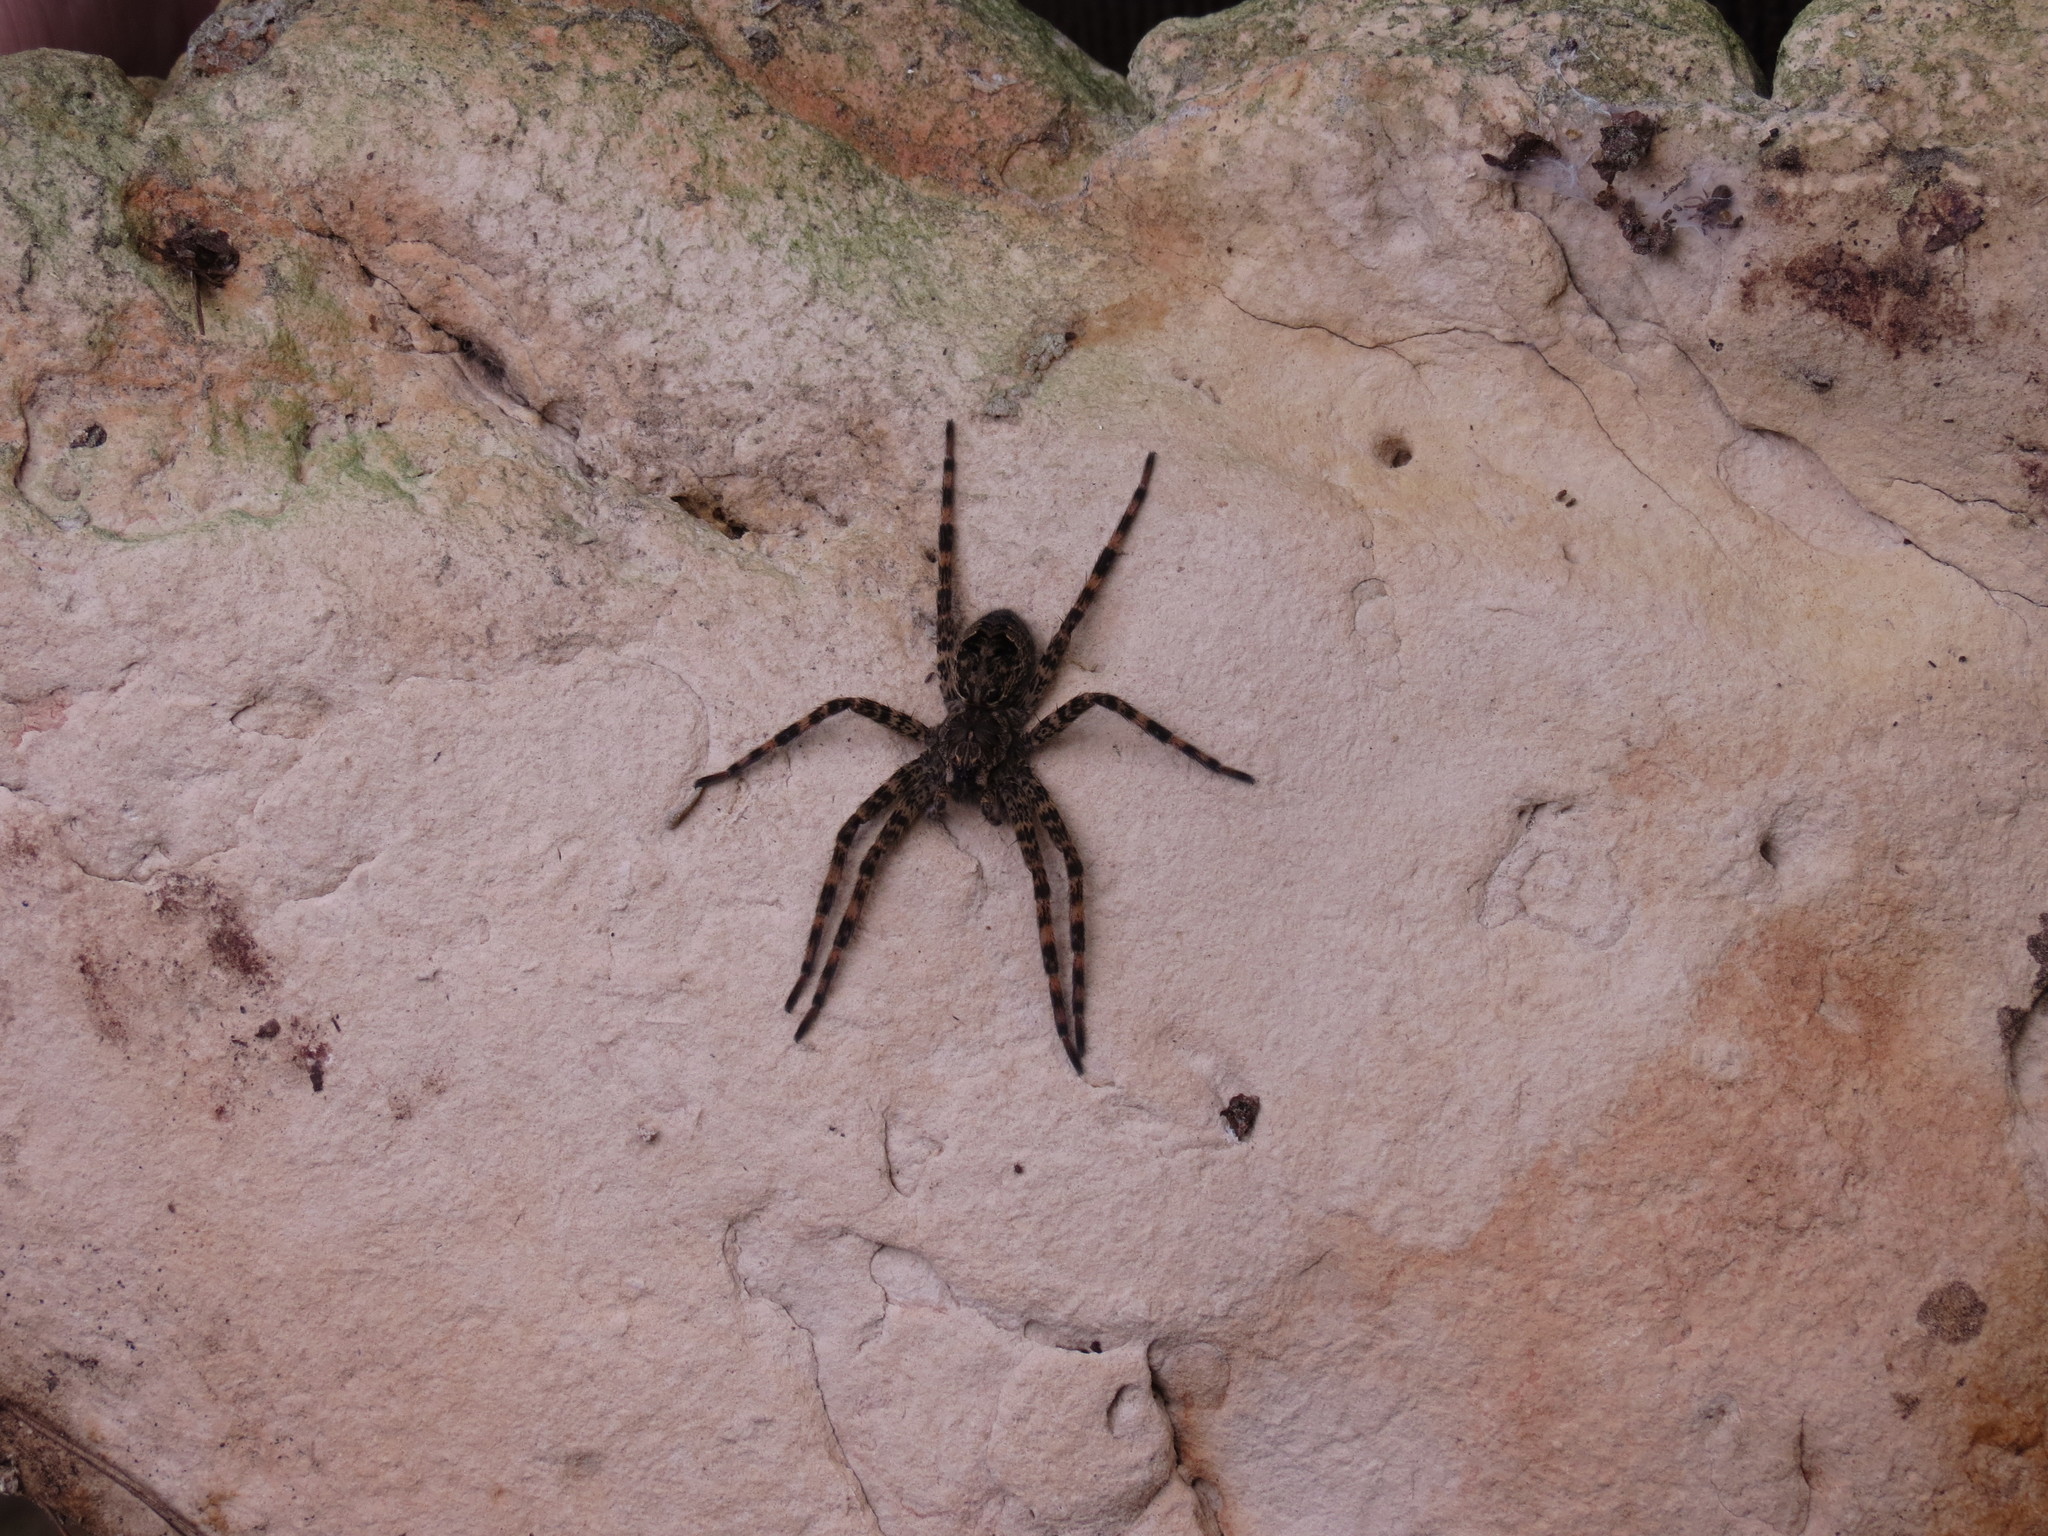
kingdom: Animalia
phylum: Arthropoda
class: Arachnida
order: Araneae
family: Pisauridae
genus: Dolomedes
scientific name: Dolomedes tenebrosus
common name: Dark fishing spider
